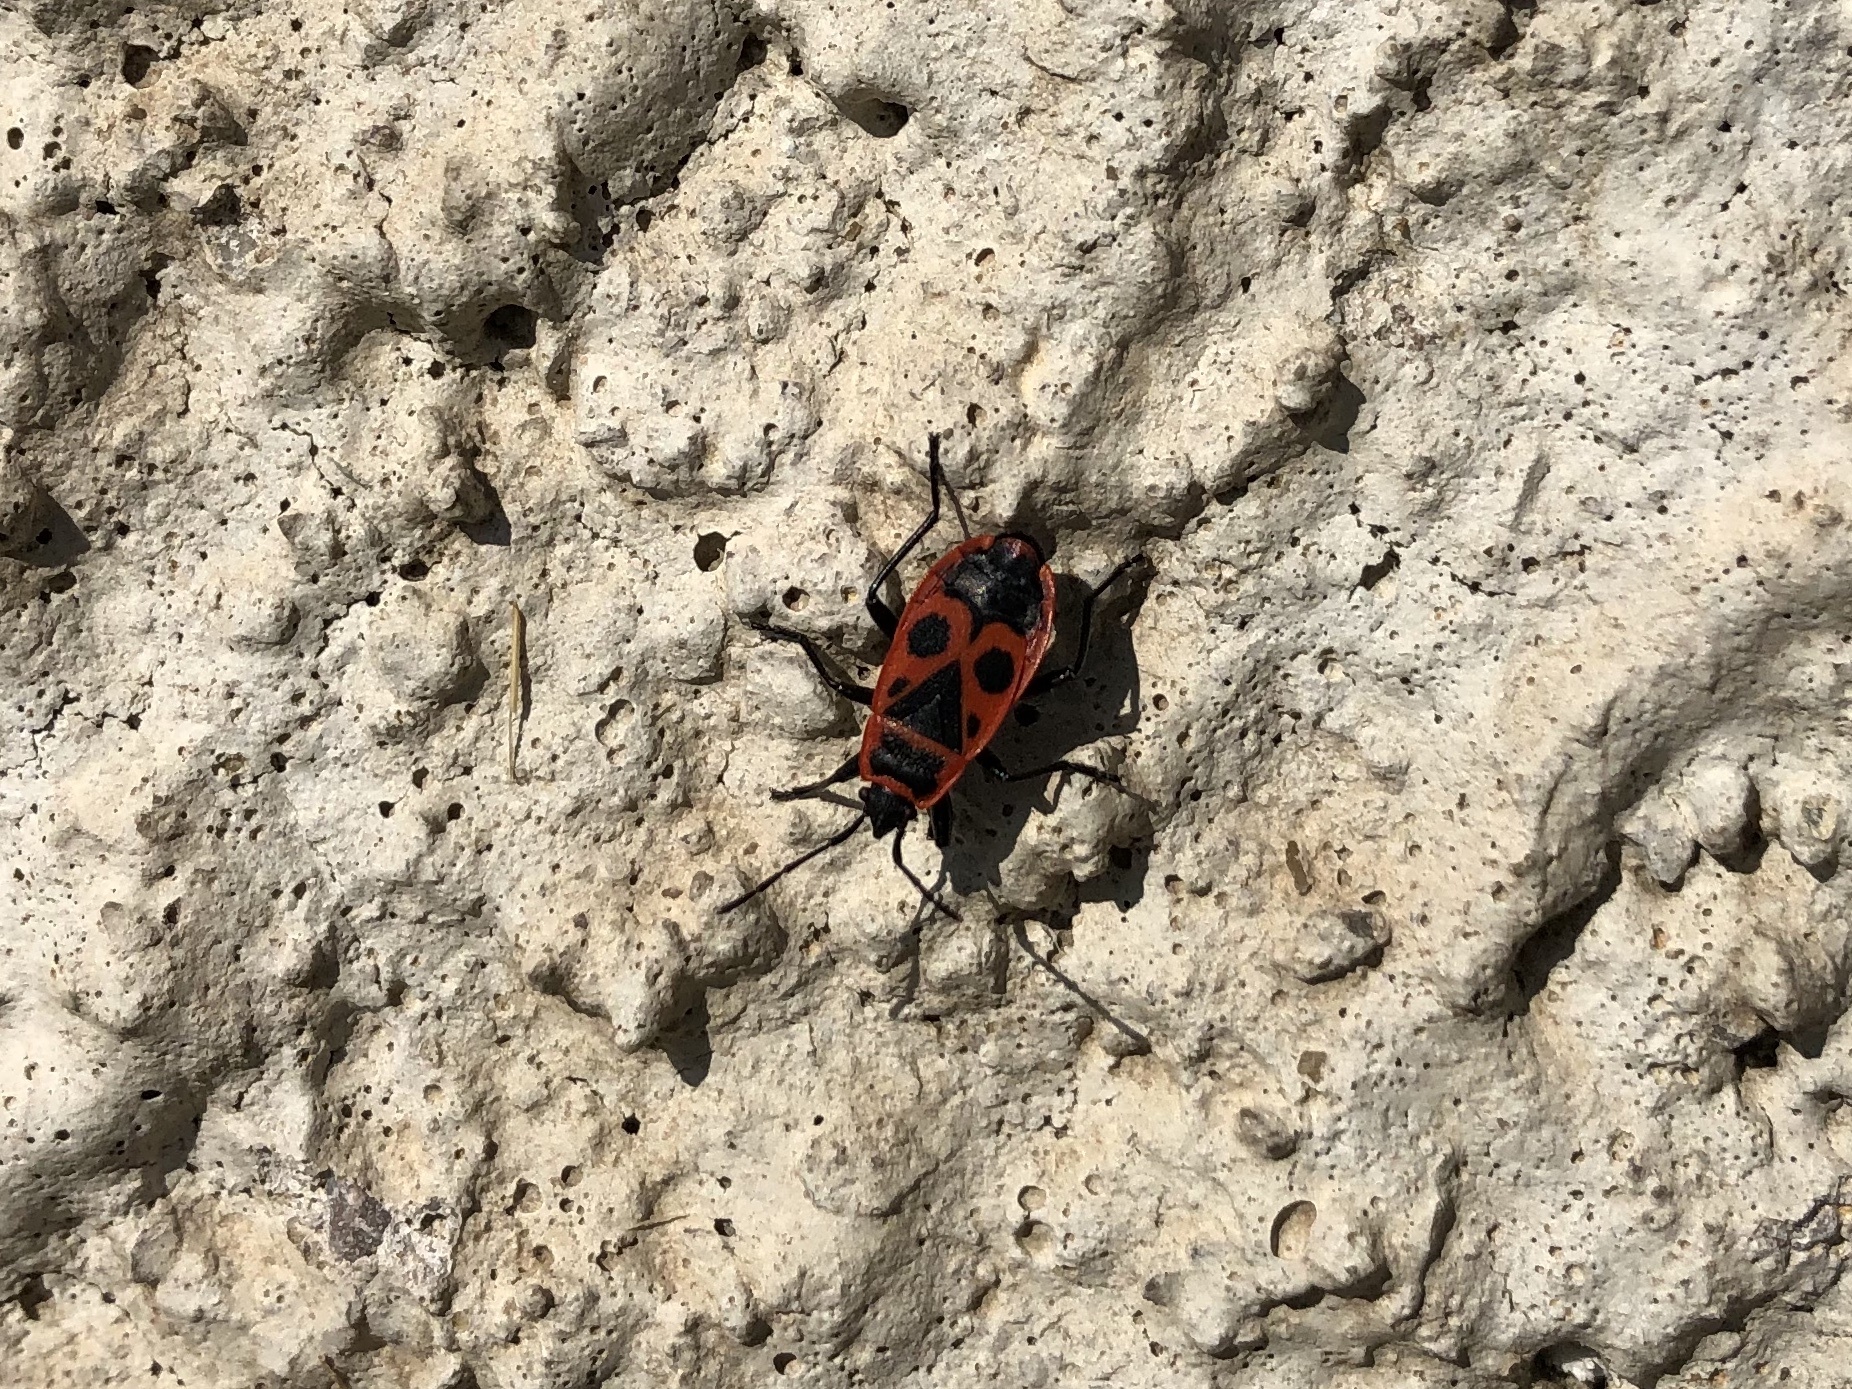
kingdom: Animalia
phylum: Arthropoda
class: Insecta
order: Hemiptera
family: Pyrrhocoridae
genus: Pyrrhocoris
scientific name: Pyrrhocoris apterus
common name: Firebug
